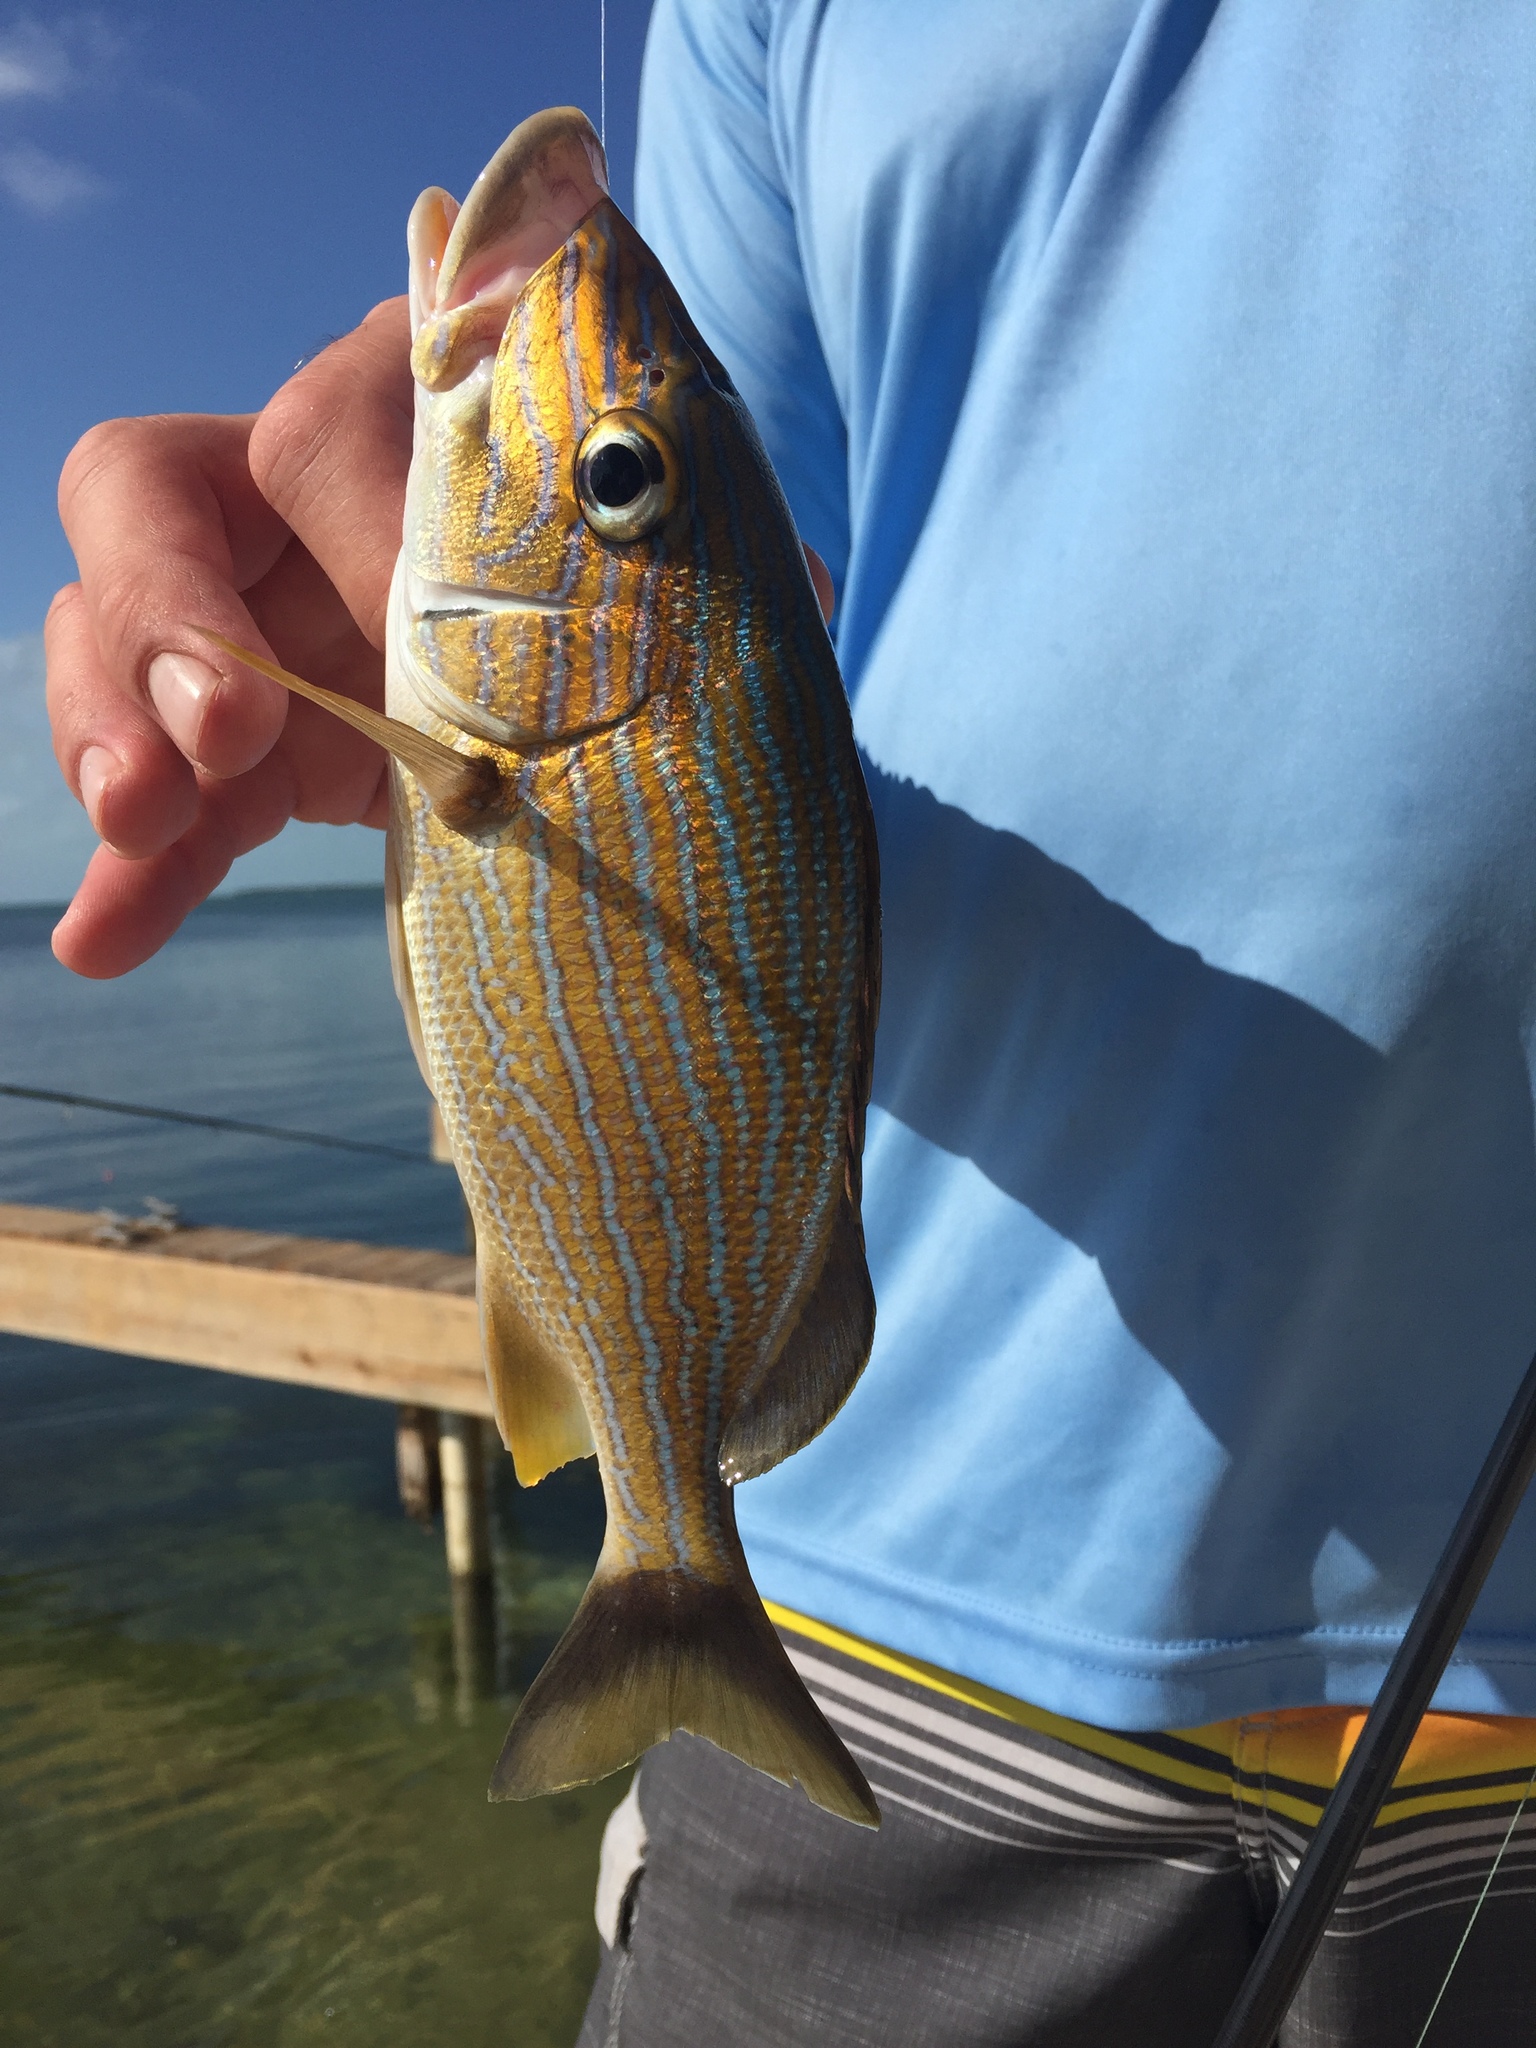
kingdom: Animalia
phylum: Chordata
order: Perciformes
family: Haemulidae
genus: Haemulon
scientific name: Haemulon sciurus
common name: Bluestriped grunt
